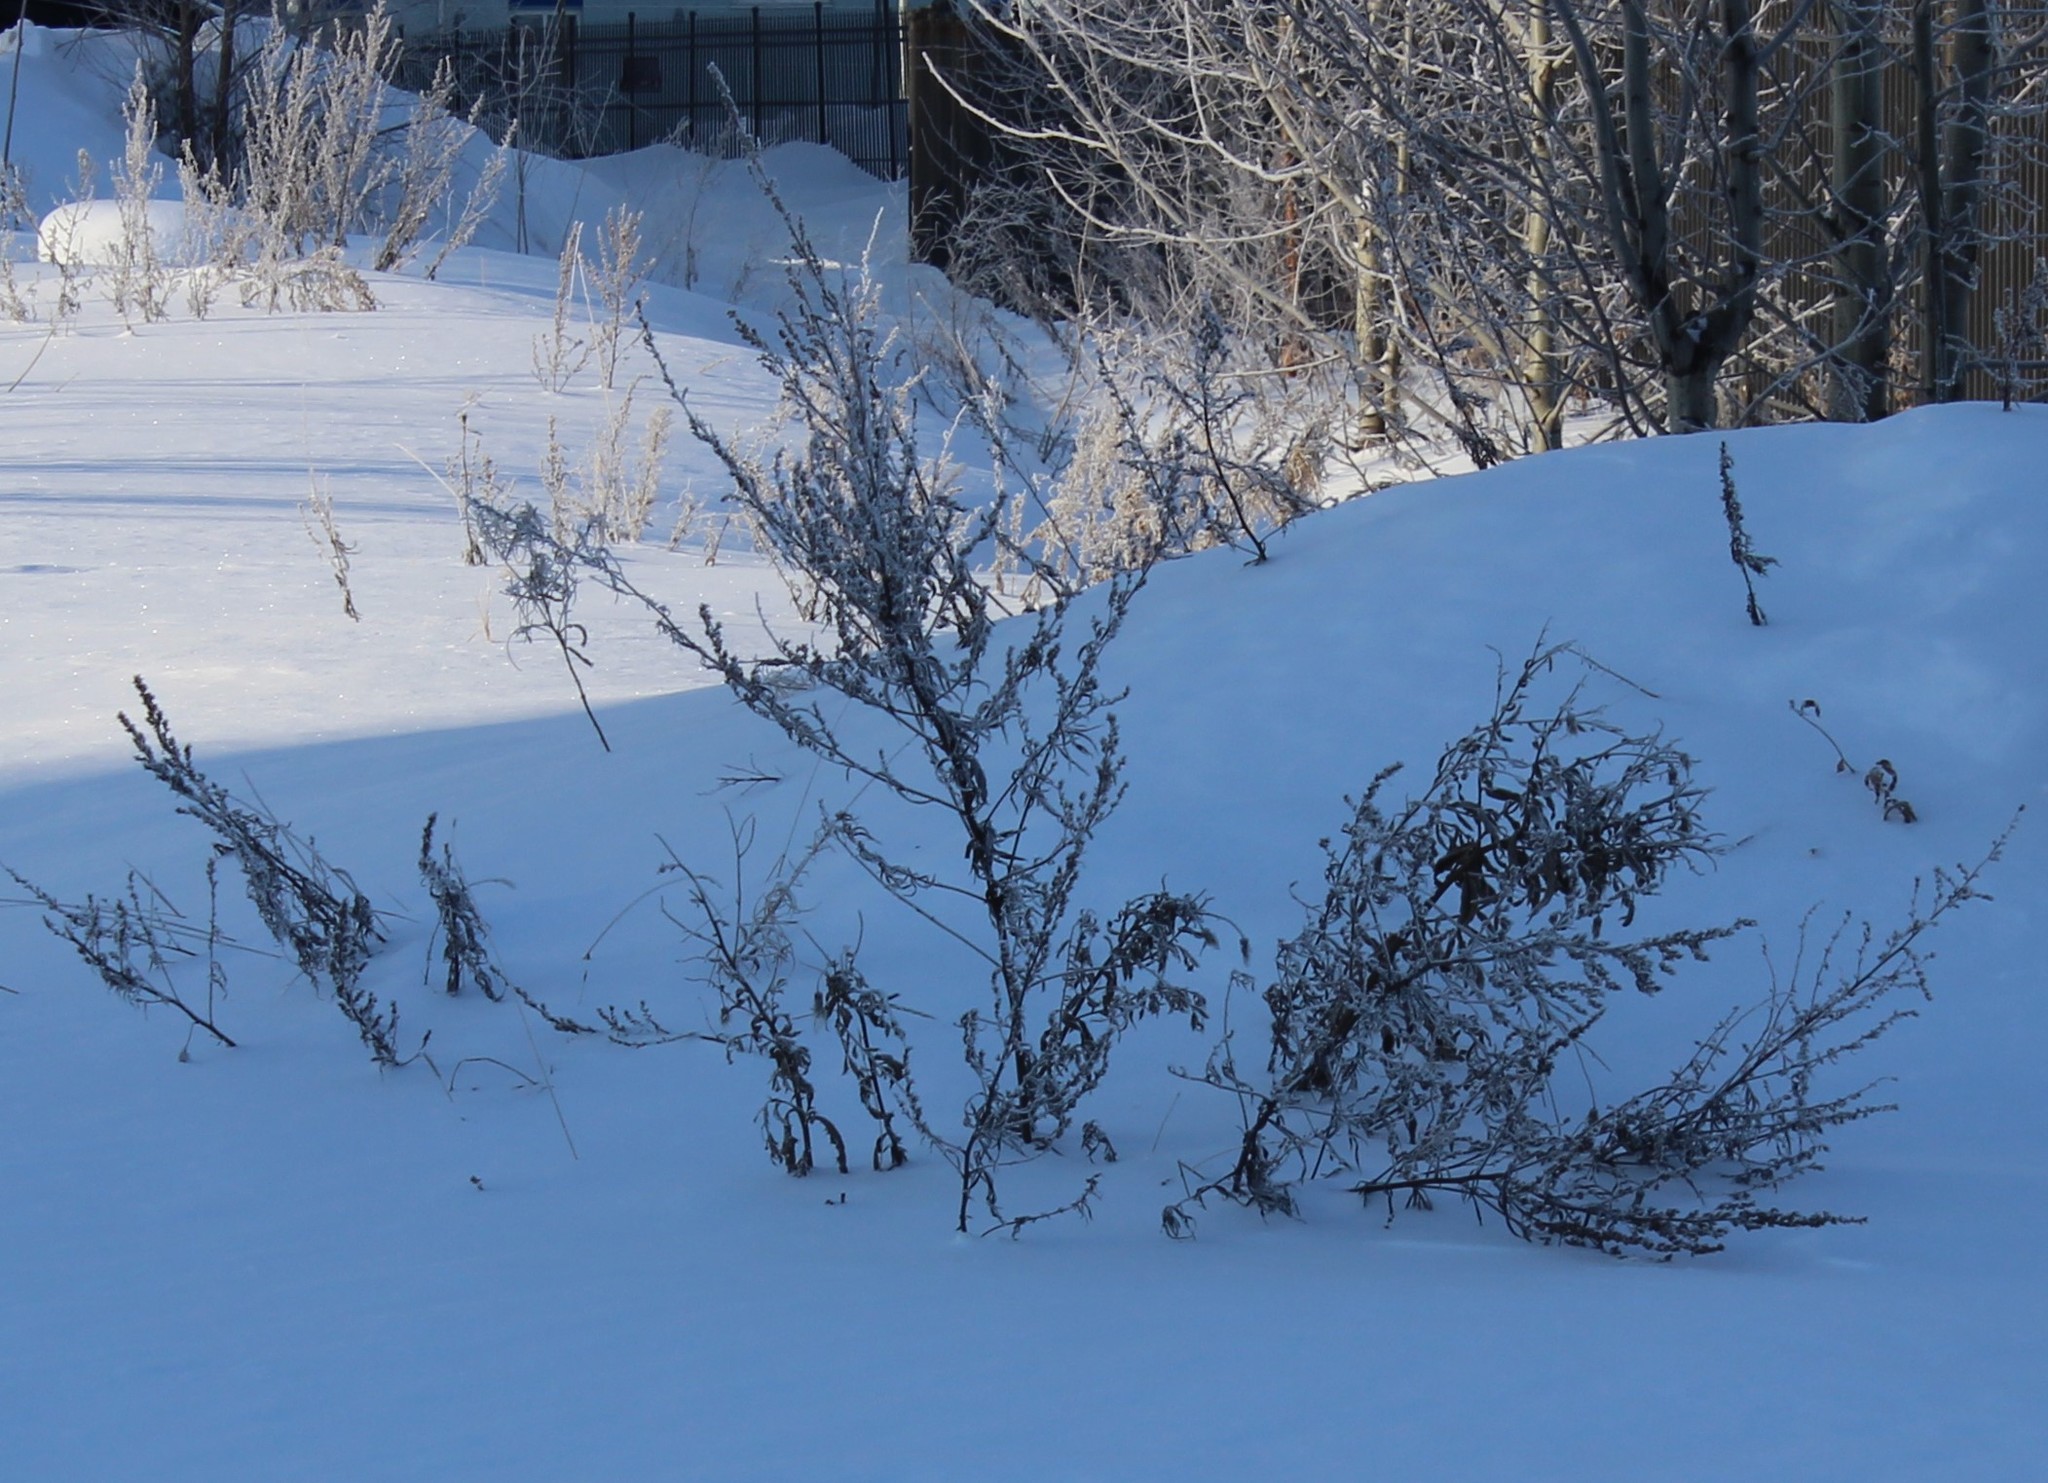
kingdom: Plantae
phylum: Tracheophyta
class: Magnoliopsida
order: Asterales
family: Asteraceae
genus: Artemisia
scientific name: Artemisia vulgaris
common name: Mugwort
